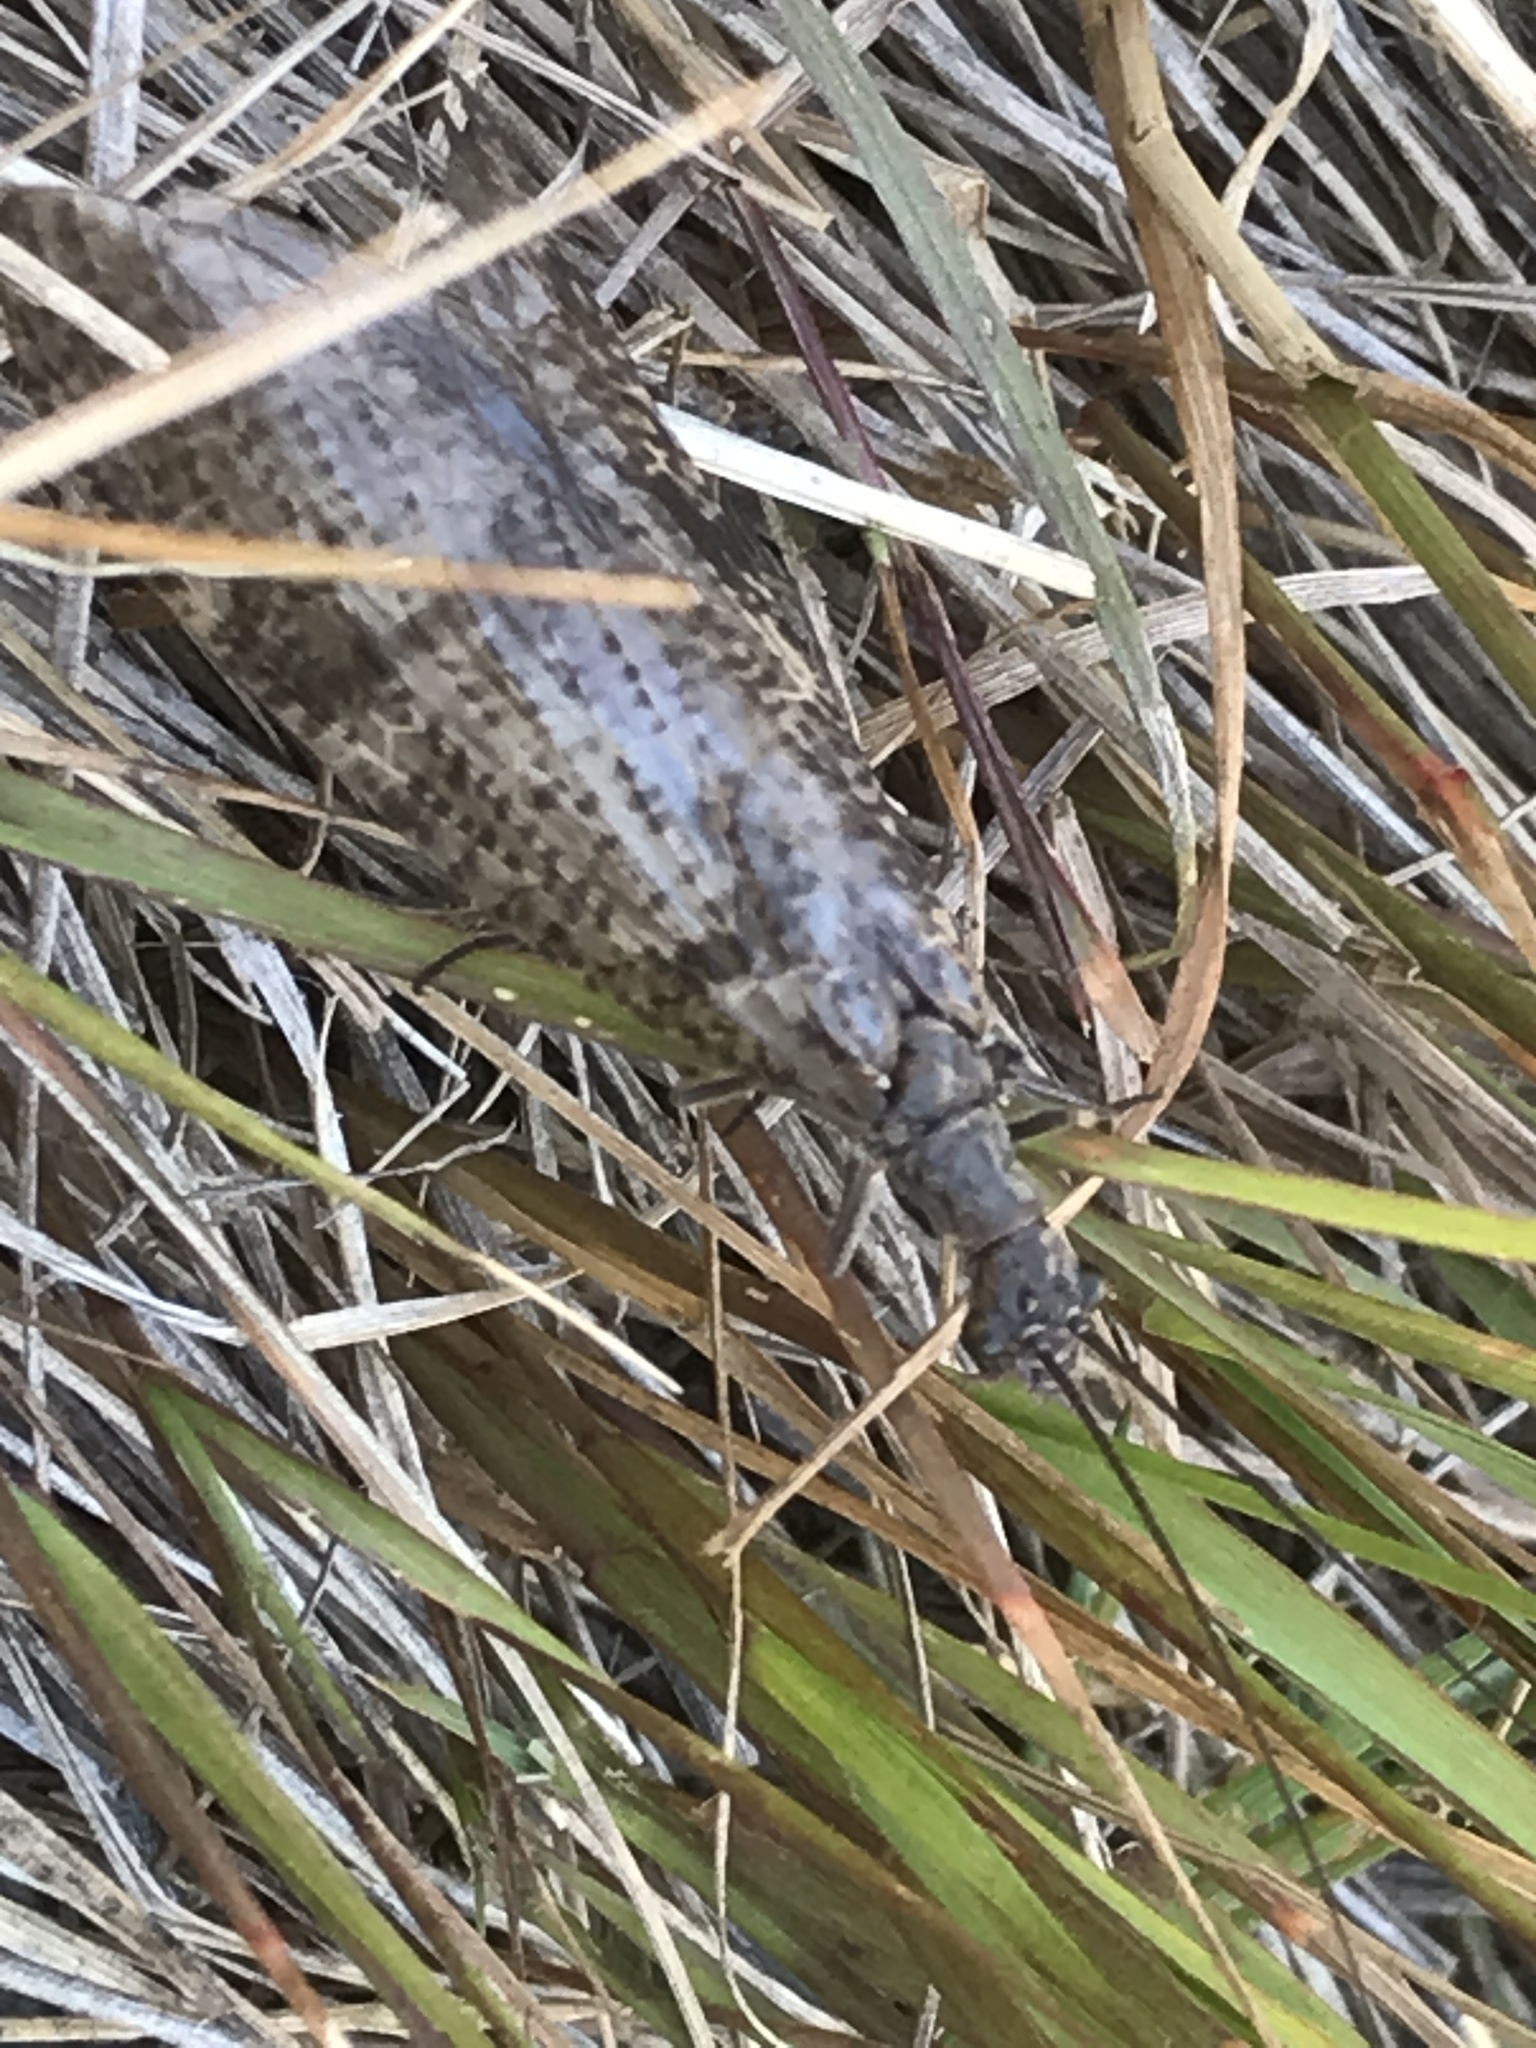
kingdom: Animalia
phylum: Arthropoda
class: Insecta
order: Megaloptera
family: Corydalidae
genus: Archichauliodes
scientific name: Archichauliodes diversus
